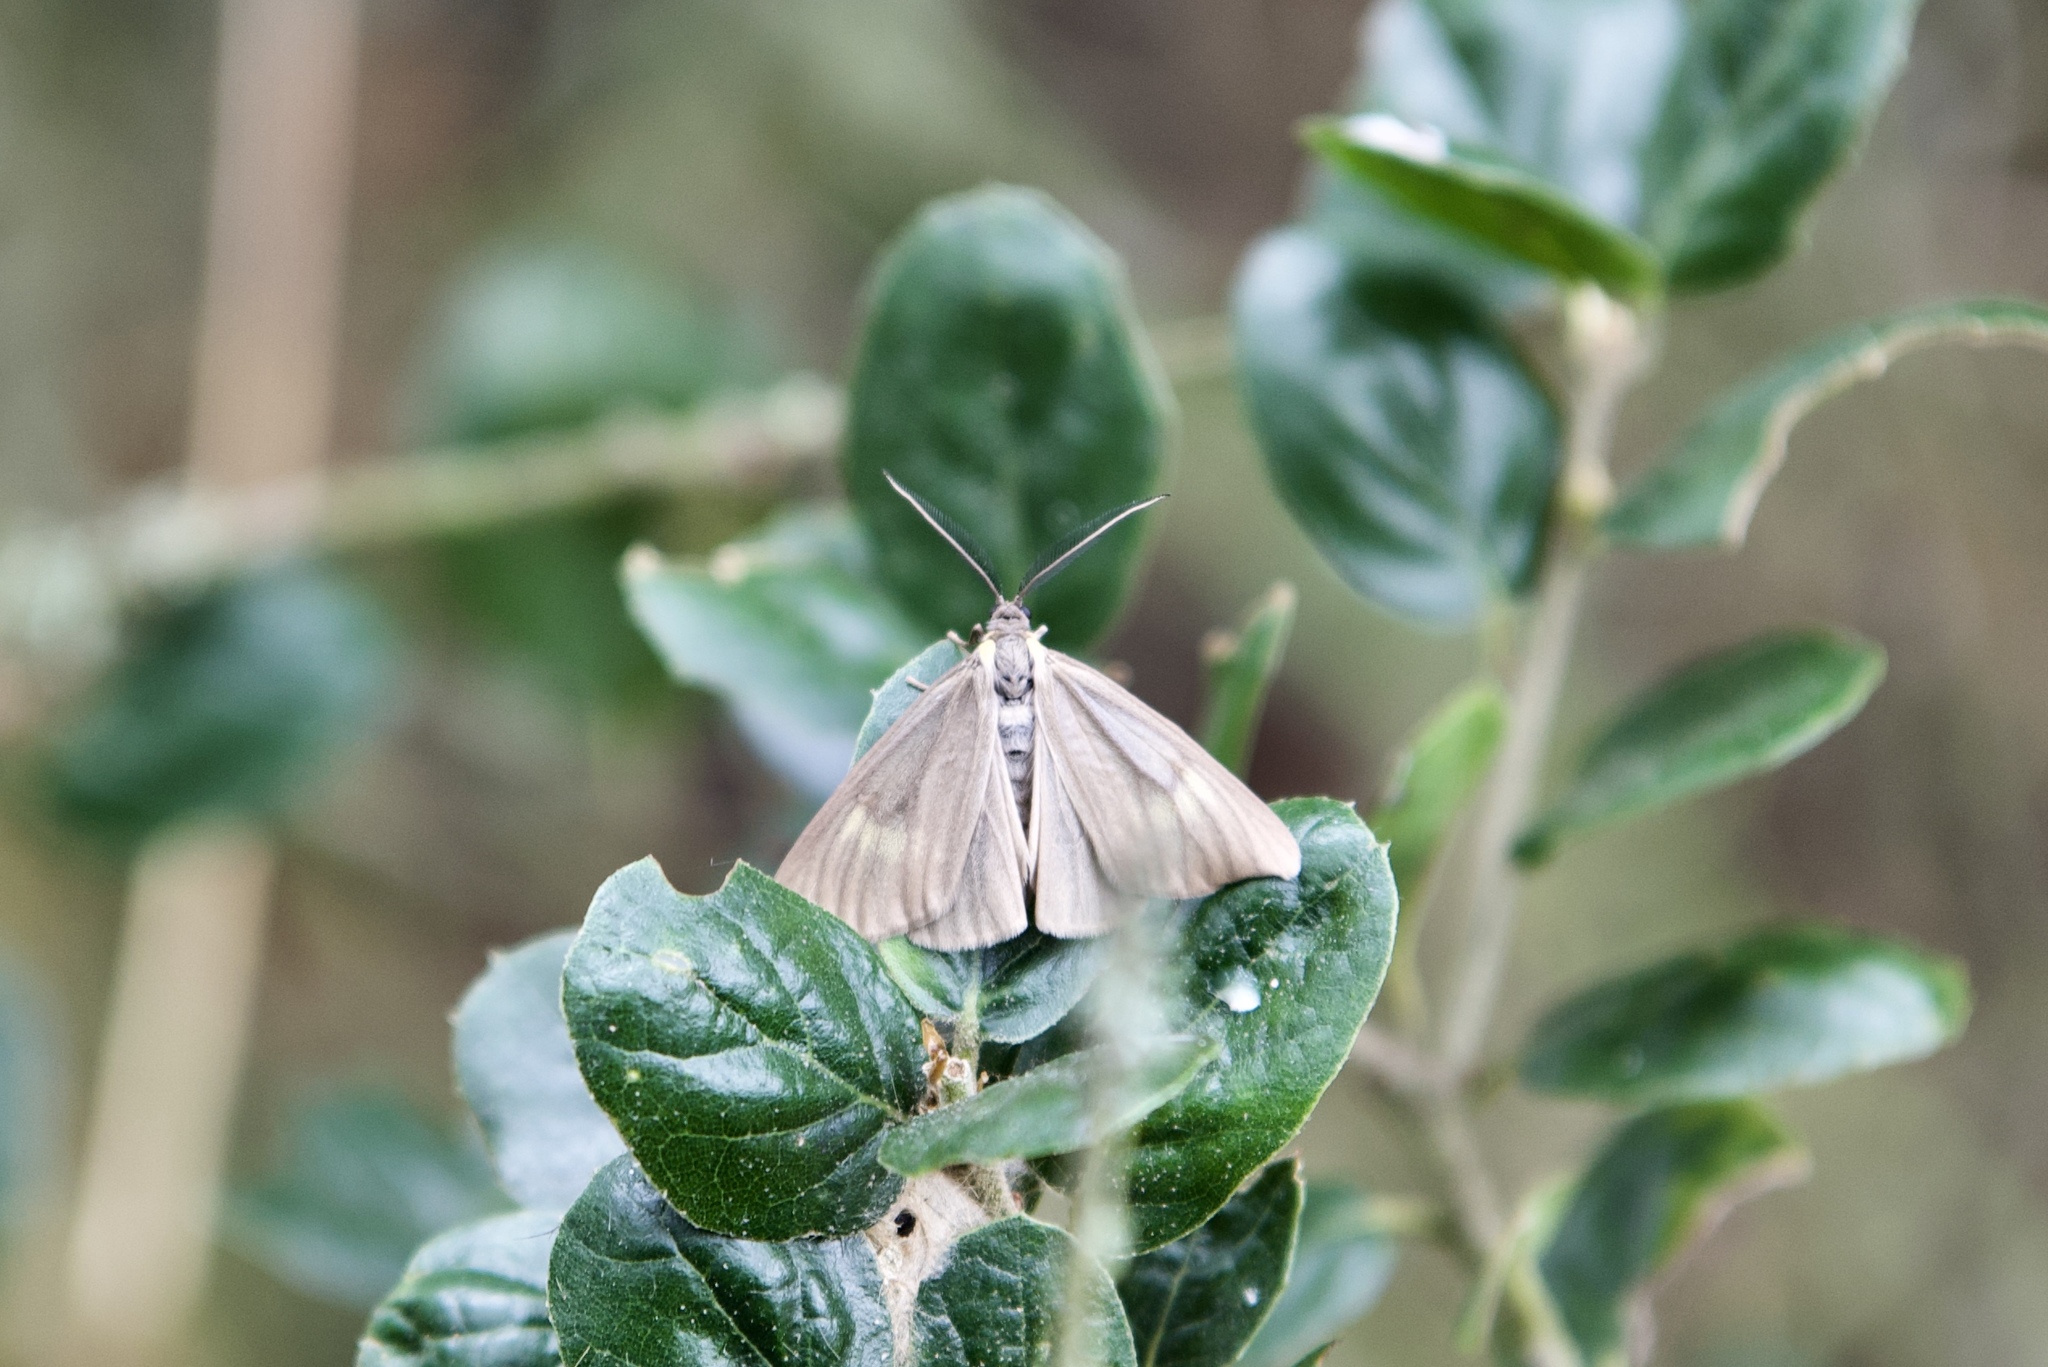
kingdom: Animalia
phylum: Arthropoda
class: Insecta
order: Lepidoptera
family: Notodontidae
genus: Phryganidia
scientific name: Phryganidia californica
